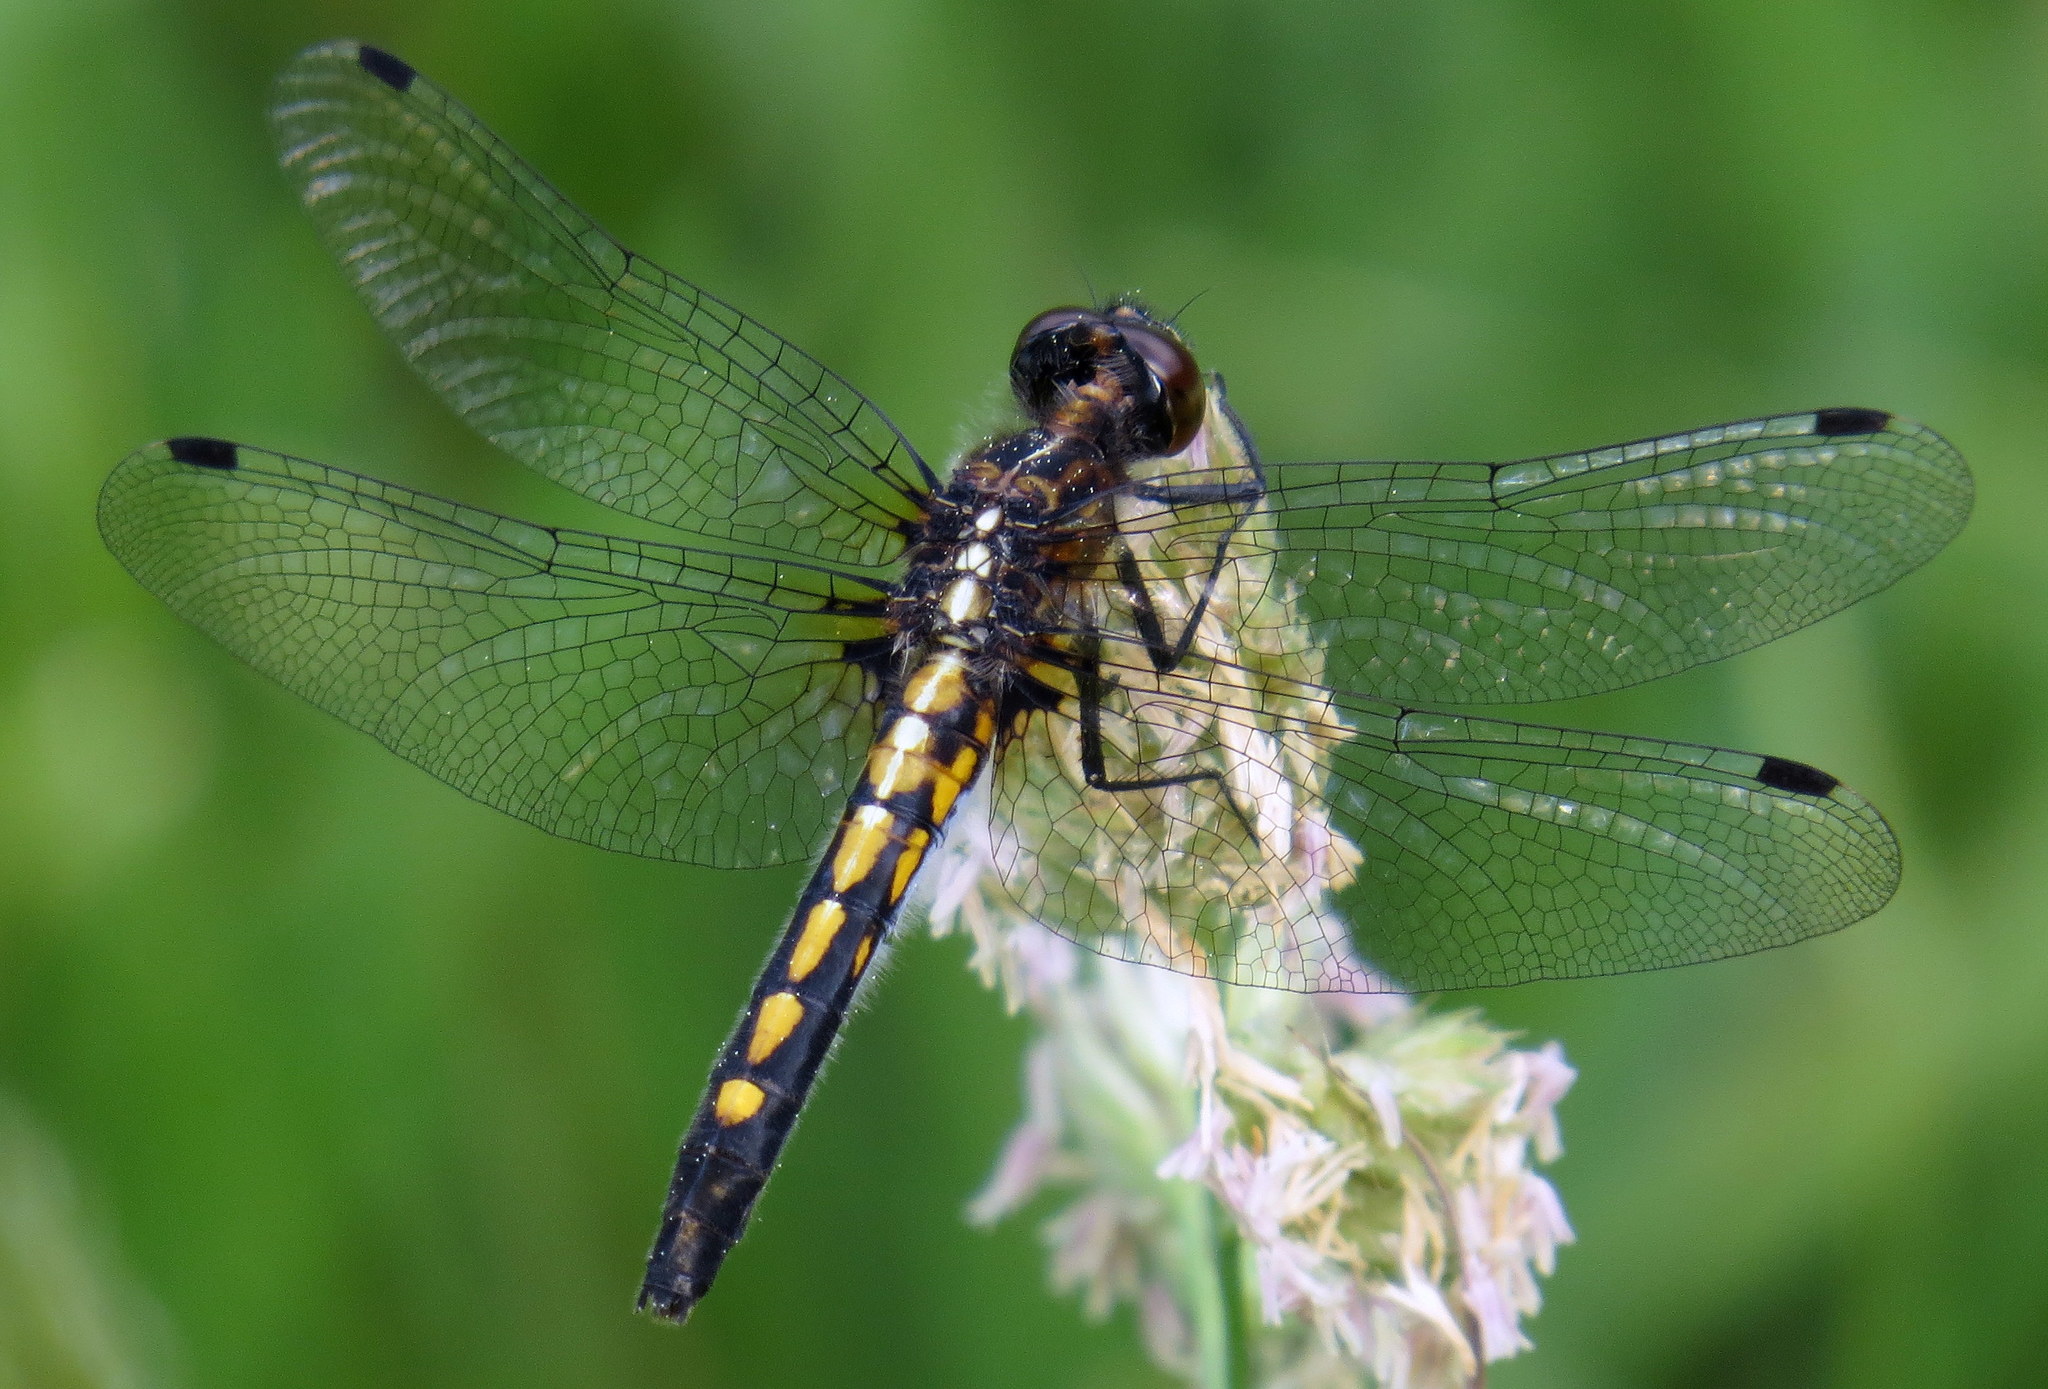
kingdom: Animalia
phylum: Arthropoda
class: Insecta
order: Odonata
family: Libellulidae
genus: Leucorrhinia
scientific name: Leucorrhinia intacta
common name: Dot-tailed whiteface
